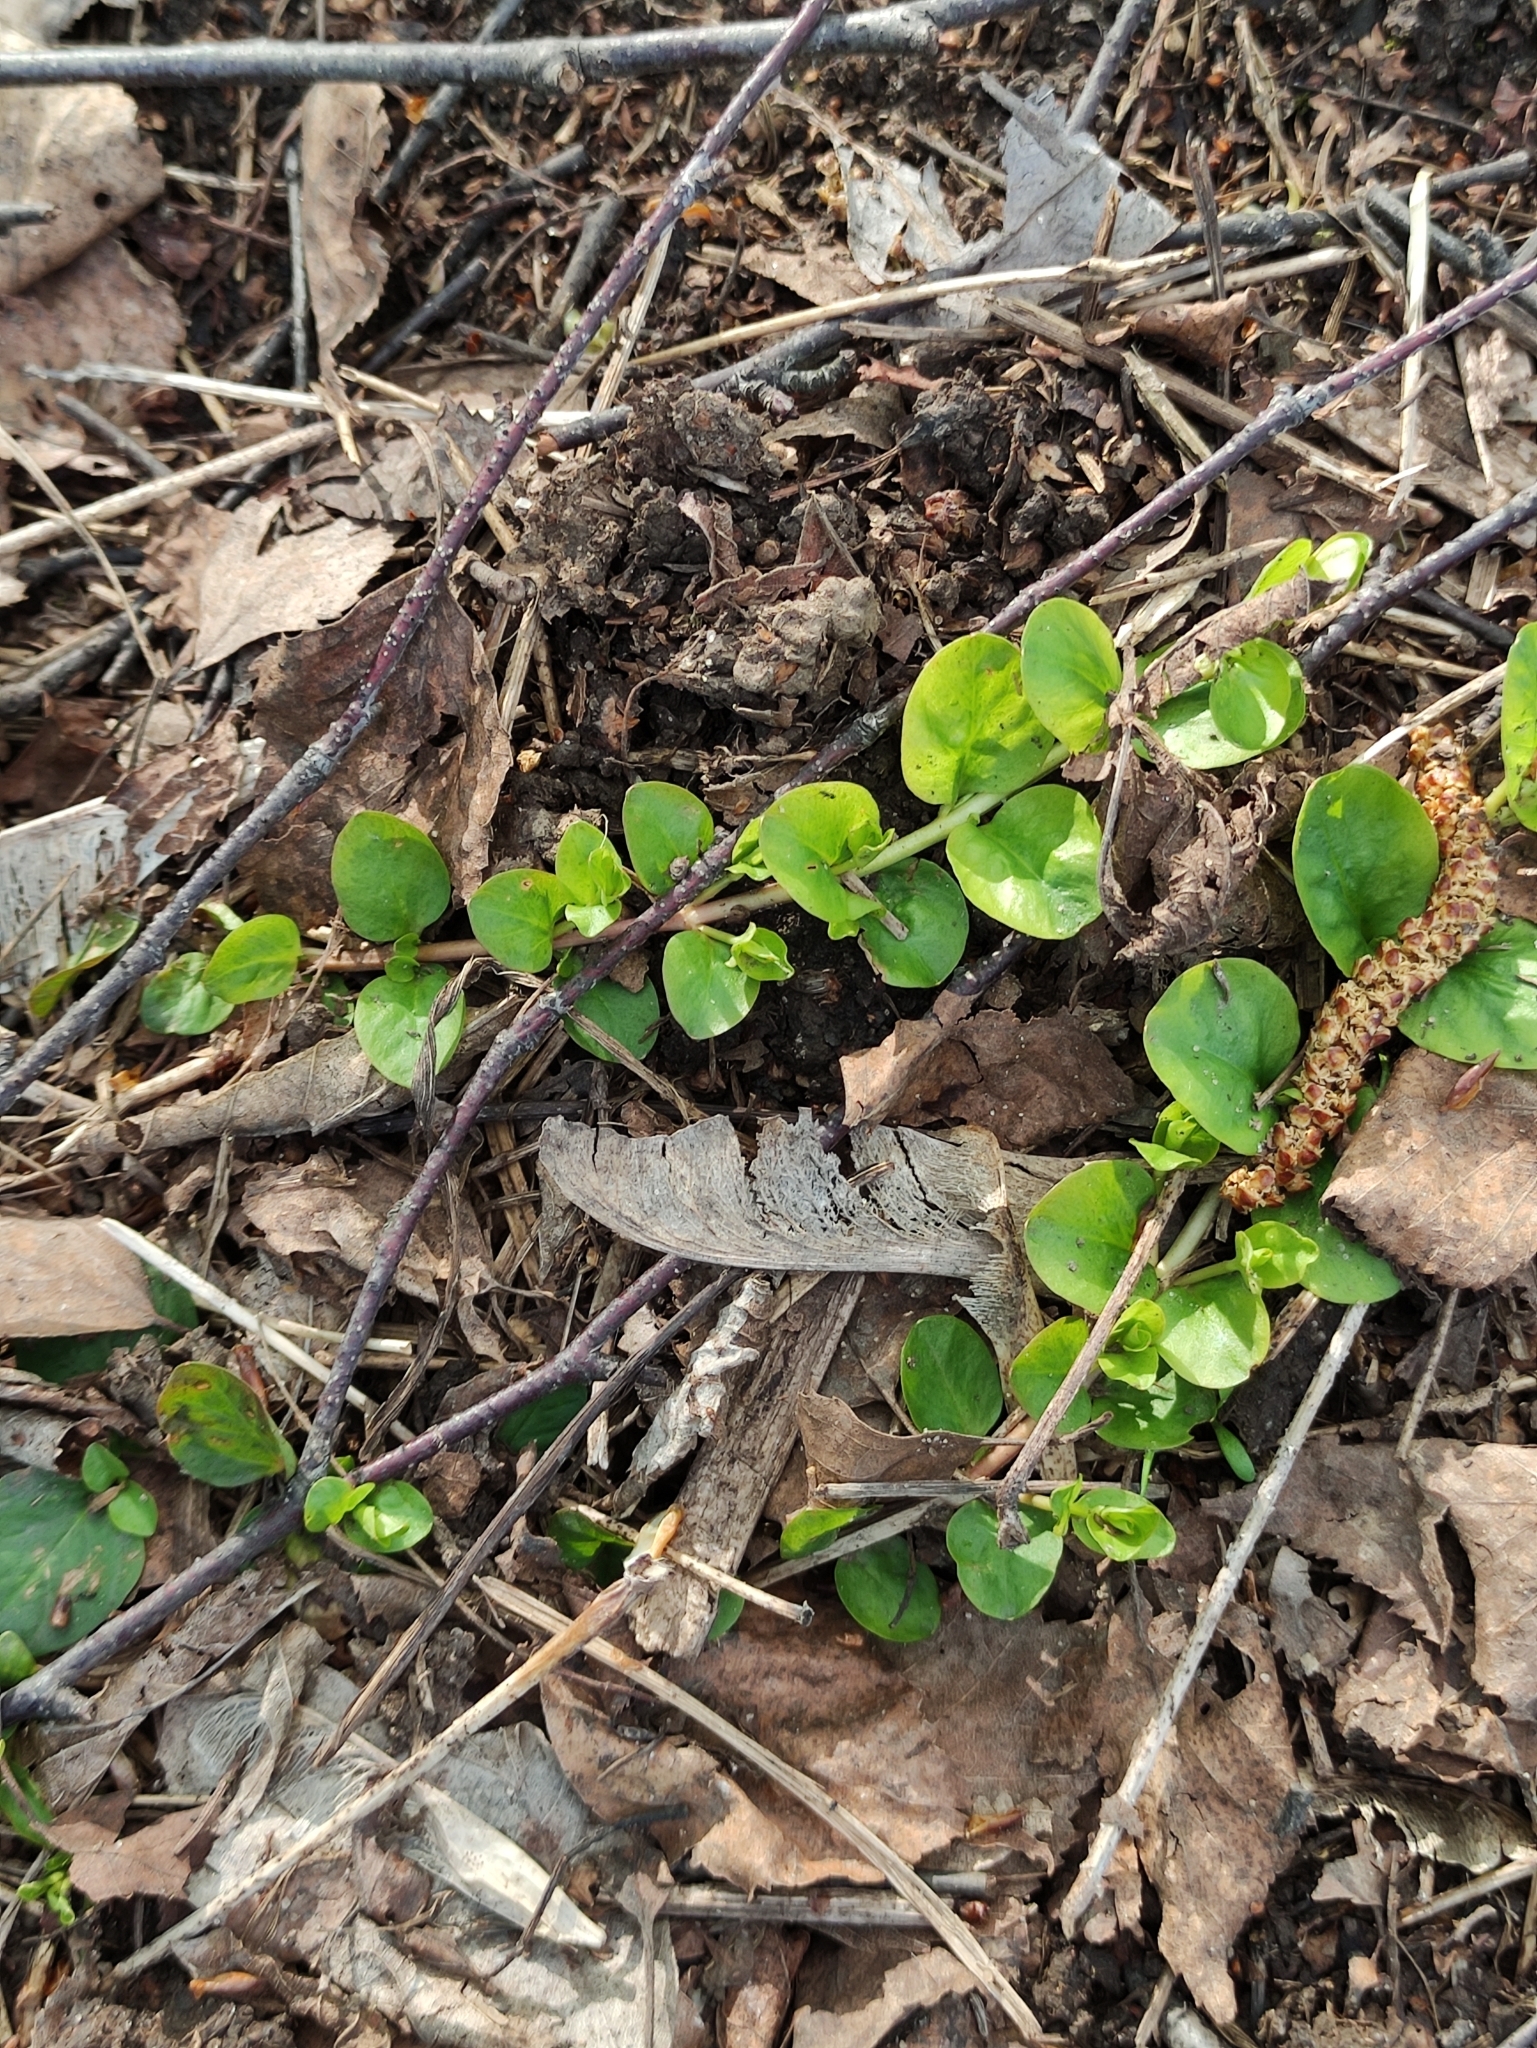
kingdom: Plantae
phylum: Tracheophyta
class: Magnoliopsida
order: Ericales
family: Primulaceae
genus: Lysimachia
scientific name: Lysimachia nummularia
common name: Moneywort
